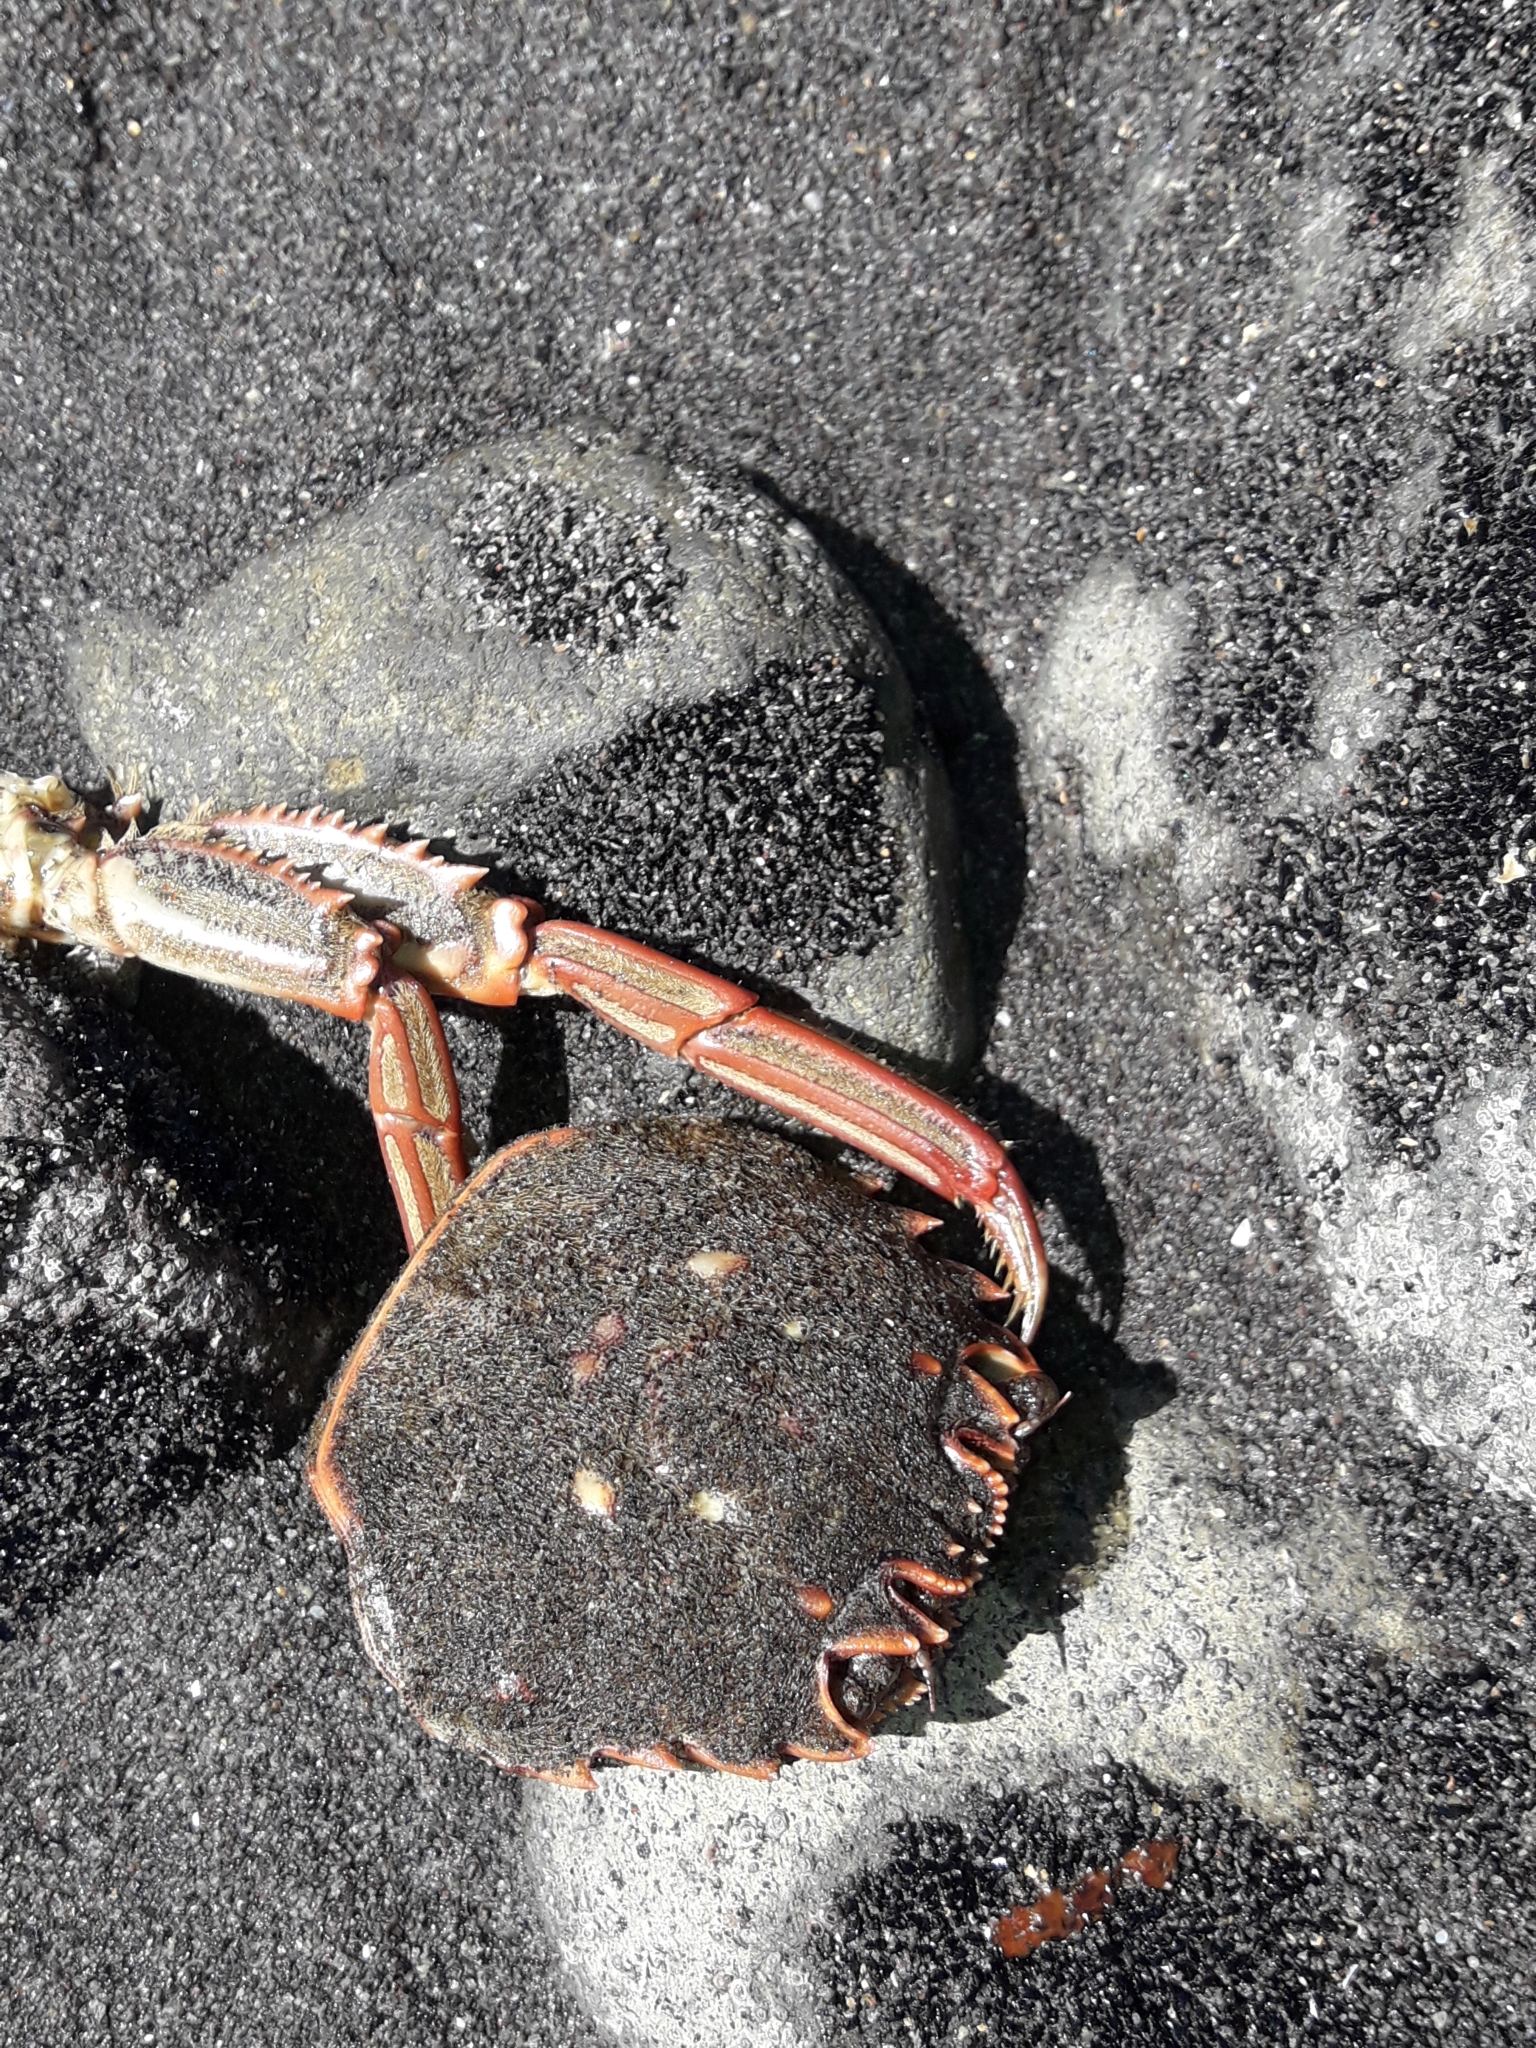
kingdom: Animalia
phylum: Arthropoda
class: Malacostraca
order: Decapoda
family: Plagusiidae
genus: Guinusia
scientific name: Guinusia chabrus
